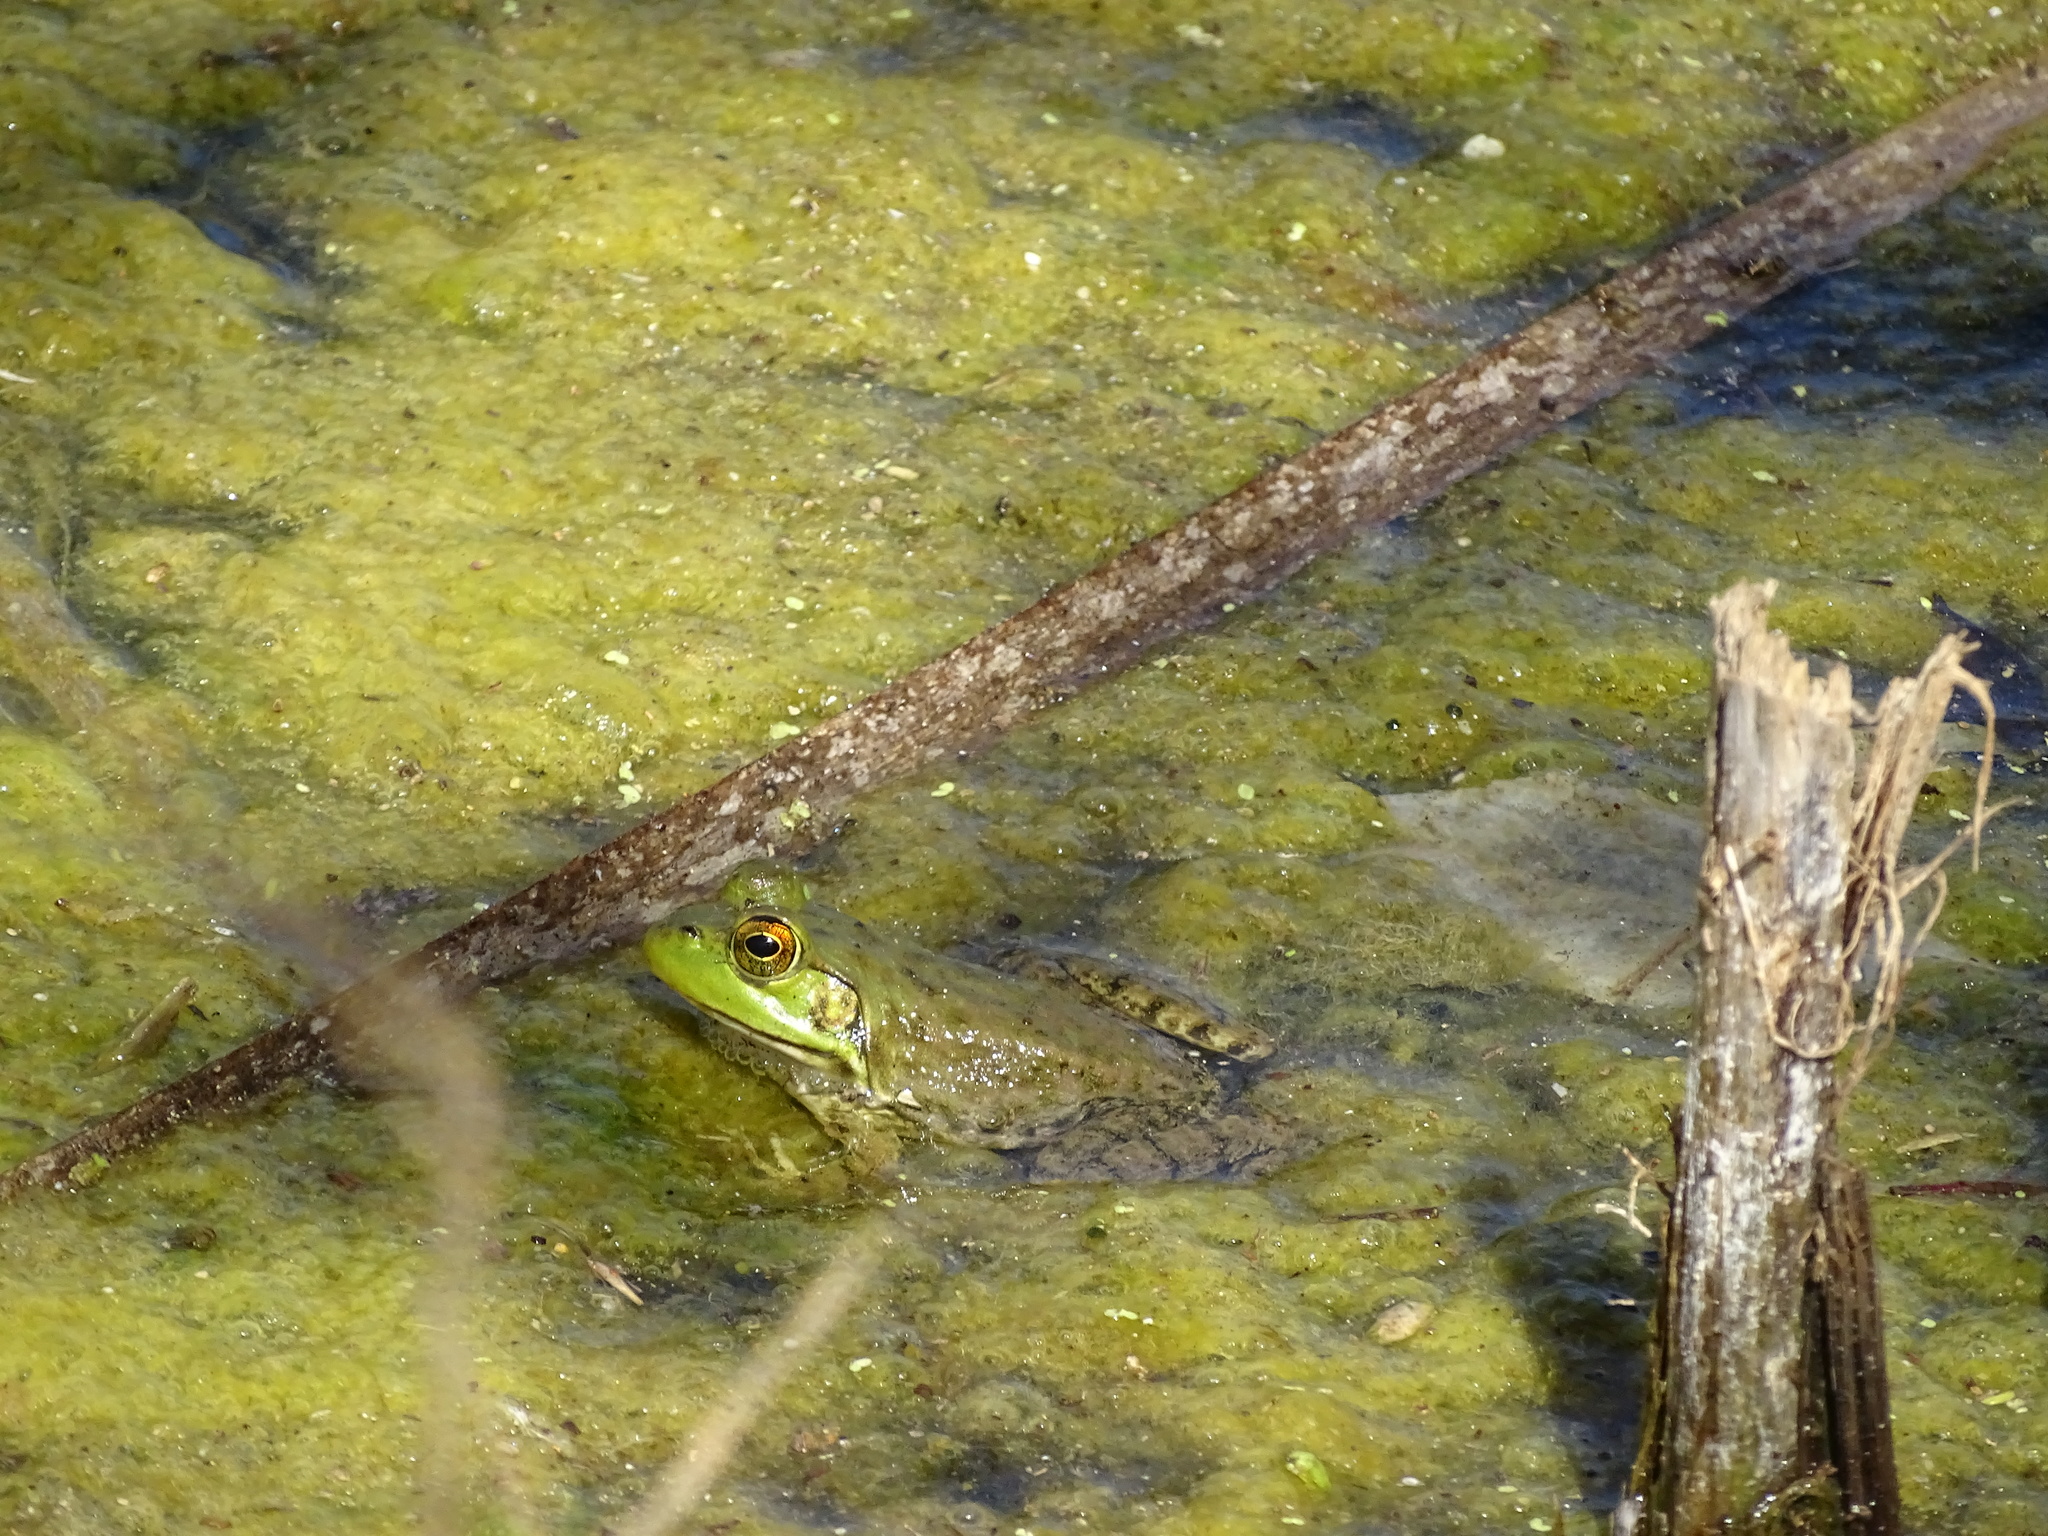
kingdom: Animalia
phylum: Chordata
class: Amphibia
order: Anura
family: Ranidae
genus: Lithobates
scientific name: Lithobates catesbeianus
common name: American bullfrog
